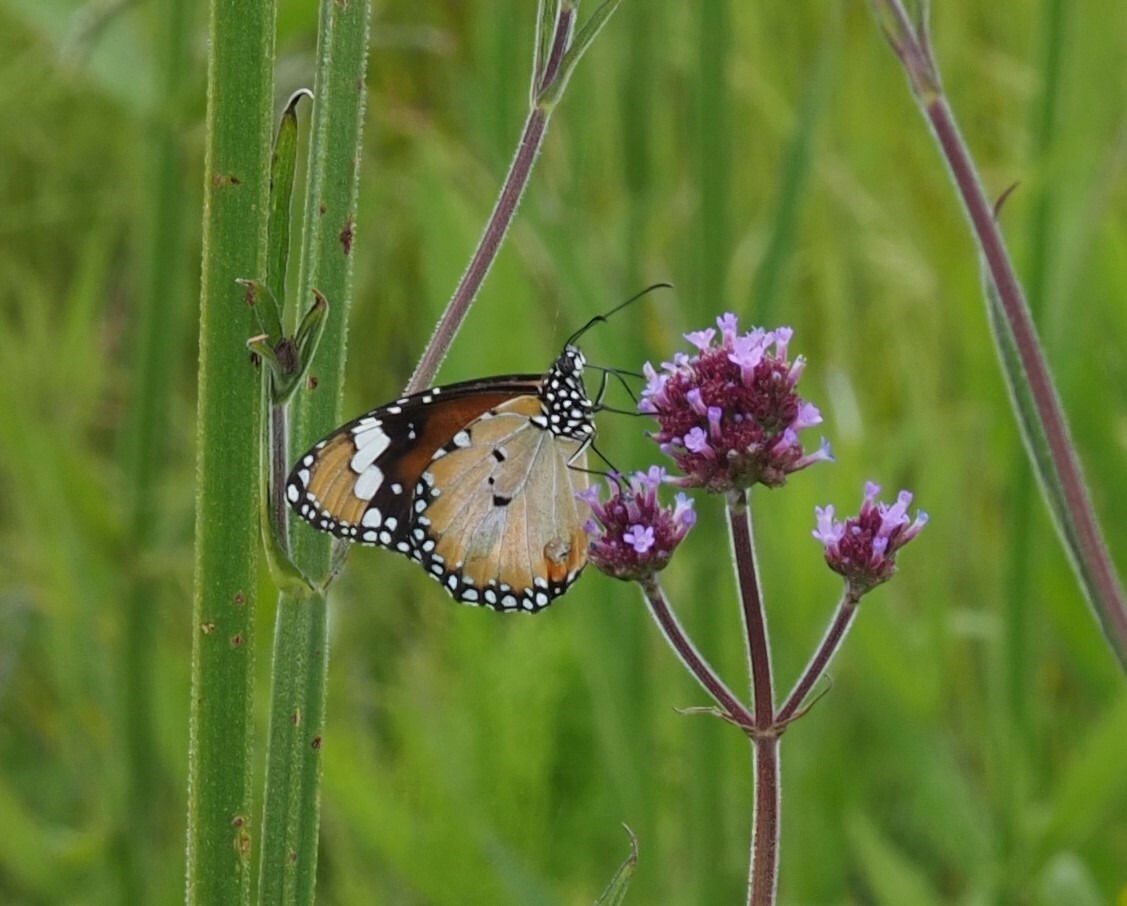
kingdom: Animalia
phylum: Arthropoda
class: Insecta
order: Lepidoptera
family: Nymphalidae
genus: Danaus
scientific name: Danaus chrysippus
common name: Plain tiger
